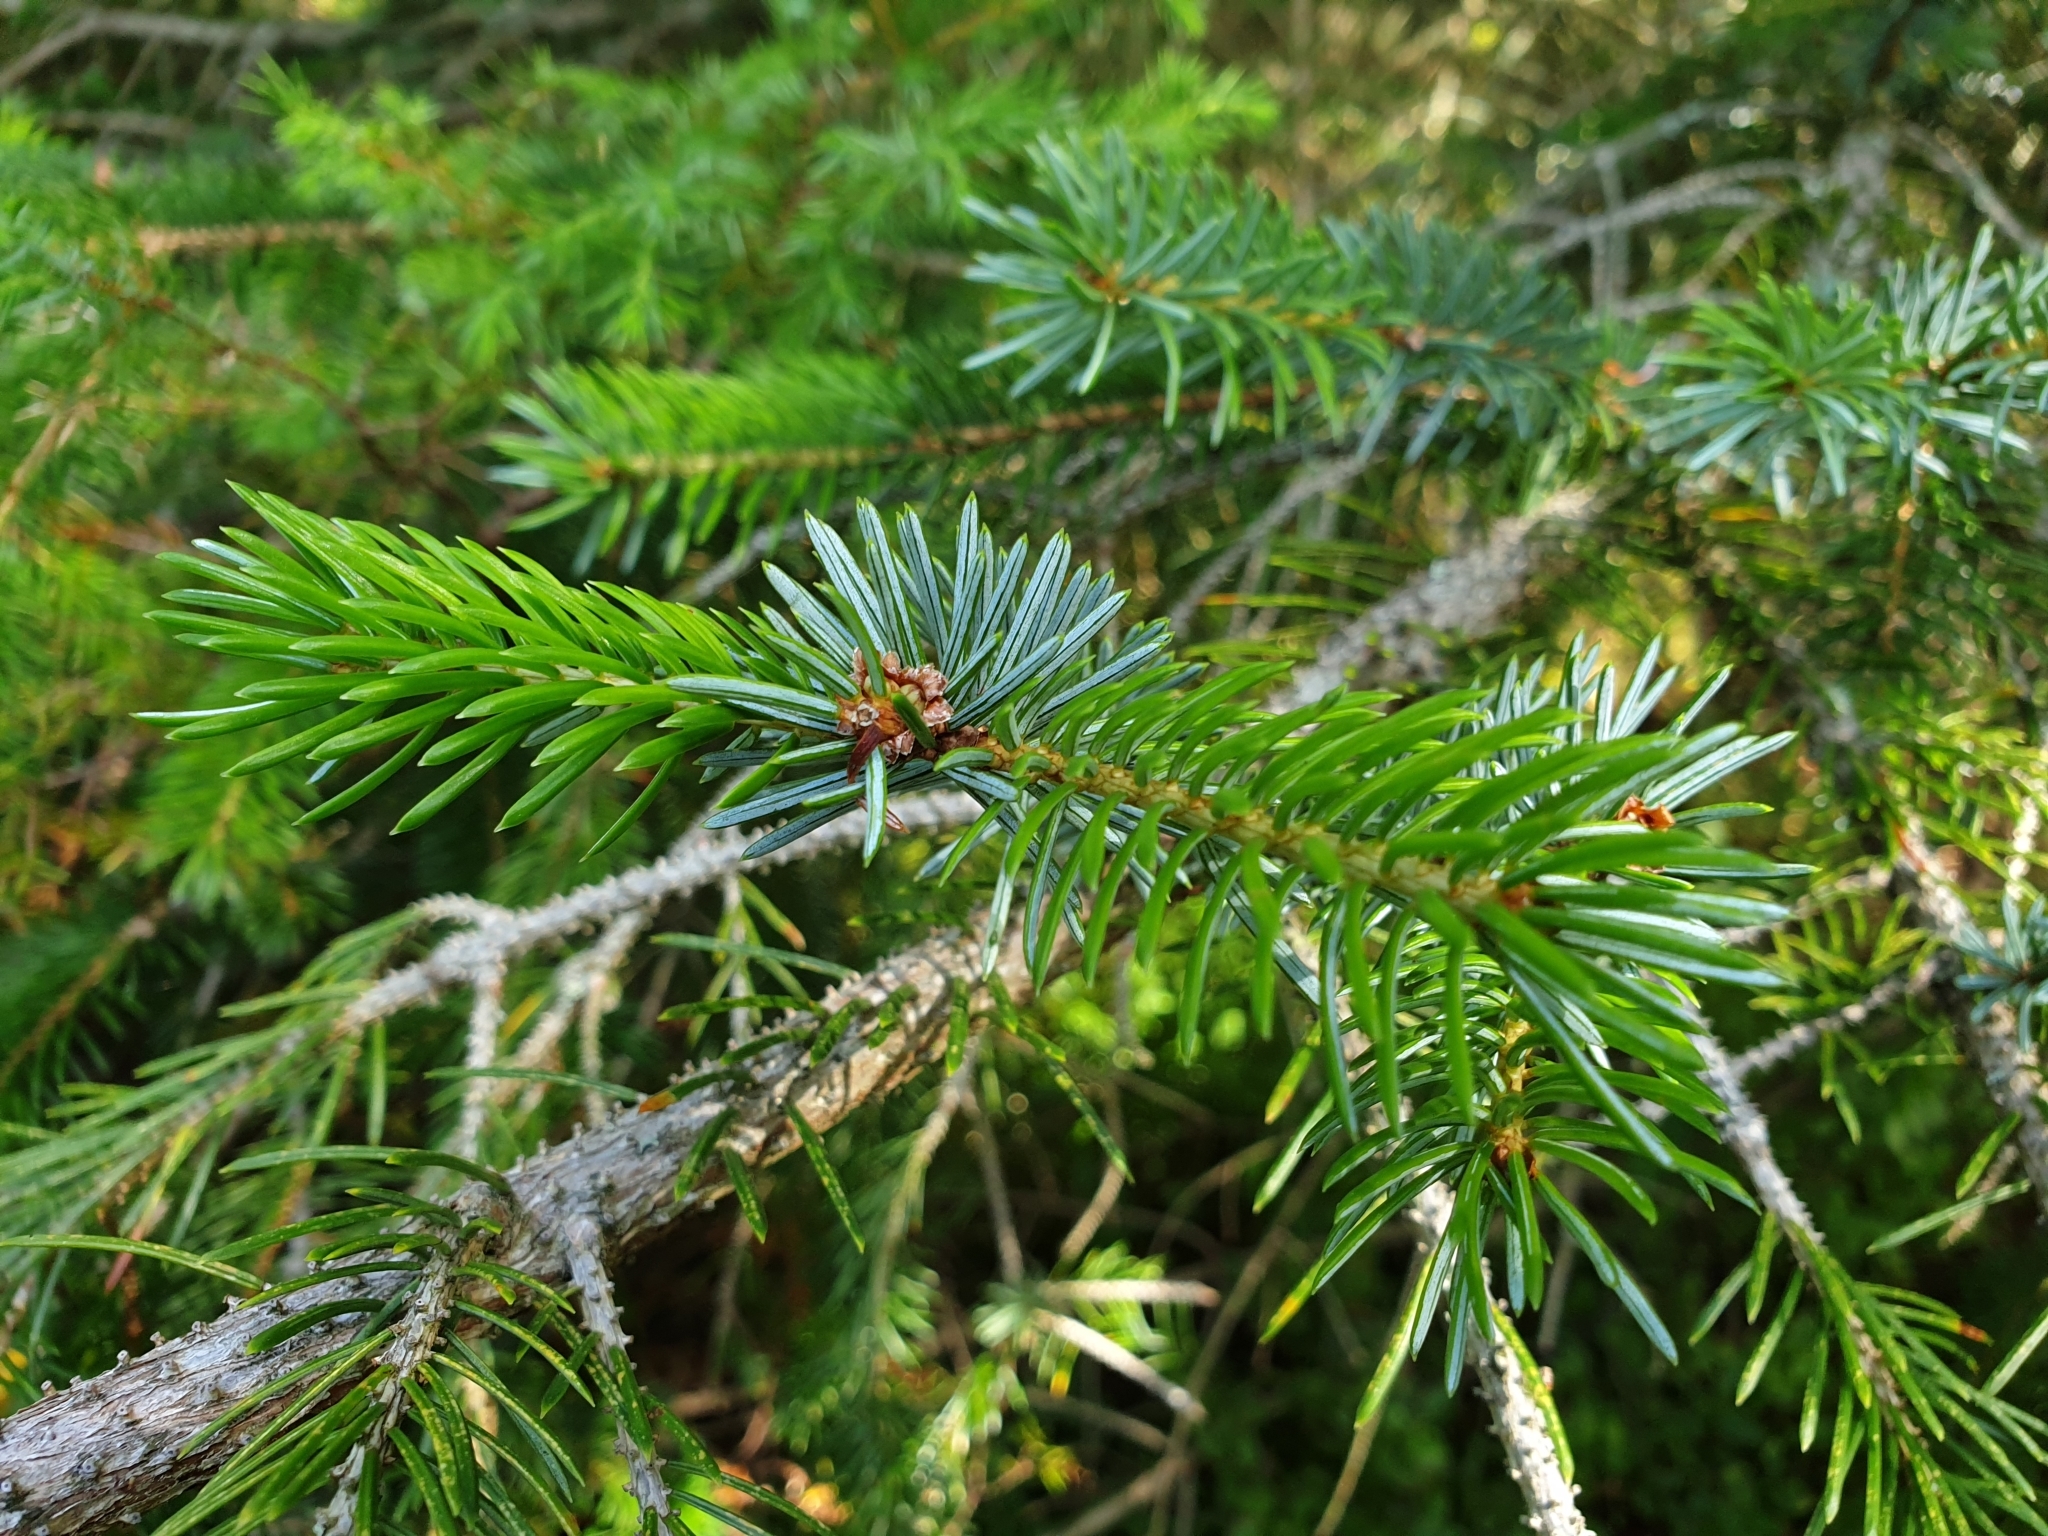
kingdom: Plantae
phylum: Tracheophyta
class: Pinopsida
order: Pinales
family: Pinaceae
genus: Picea
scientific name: Picea sitchensis
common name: Sitka spruce
